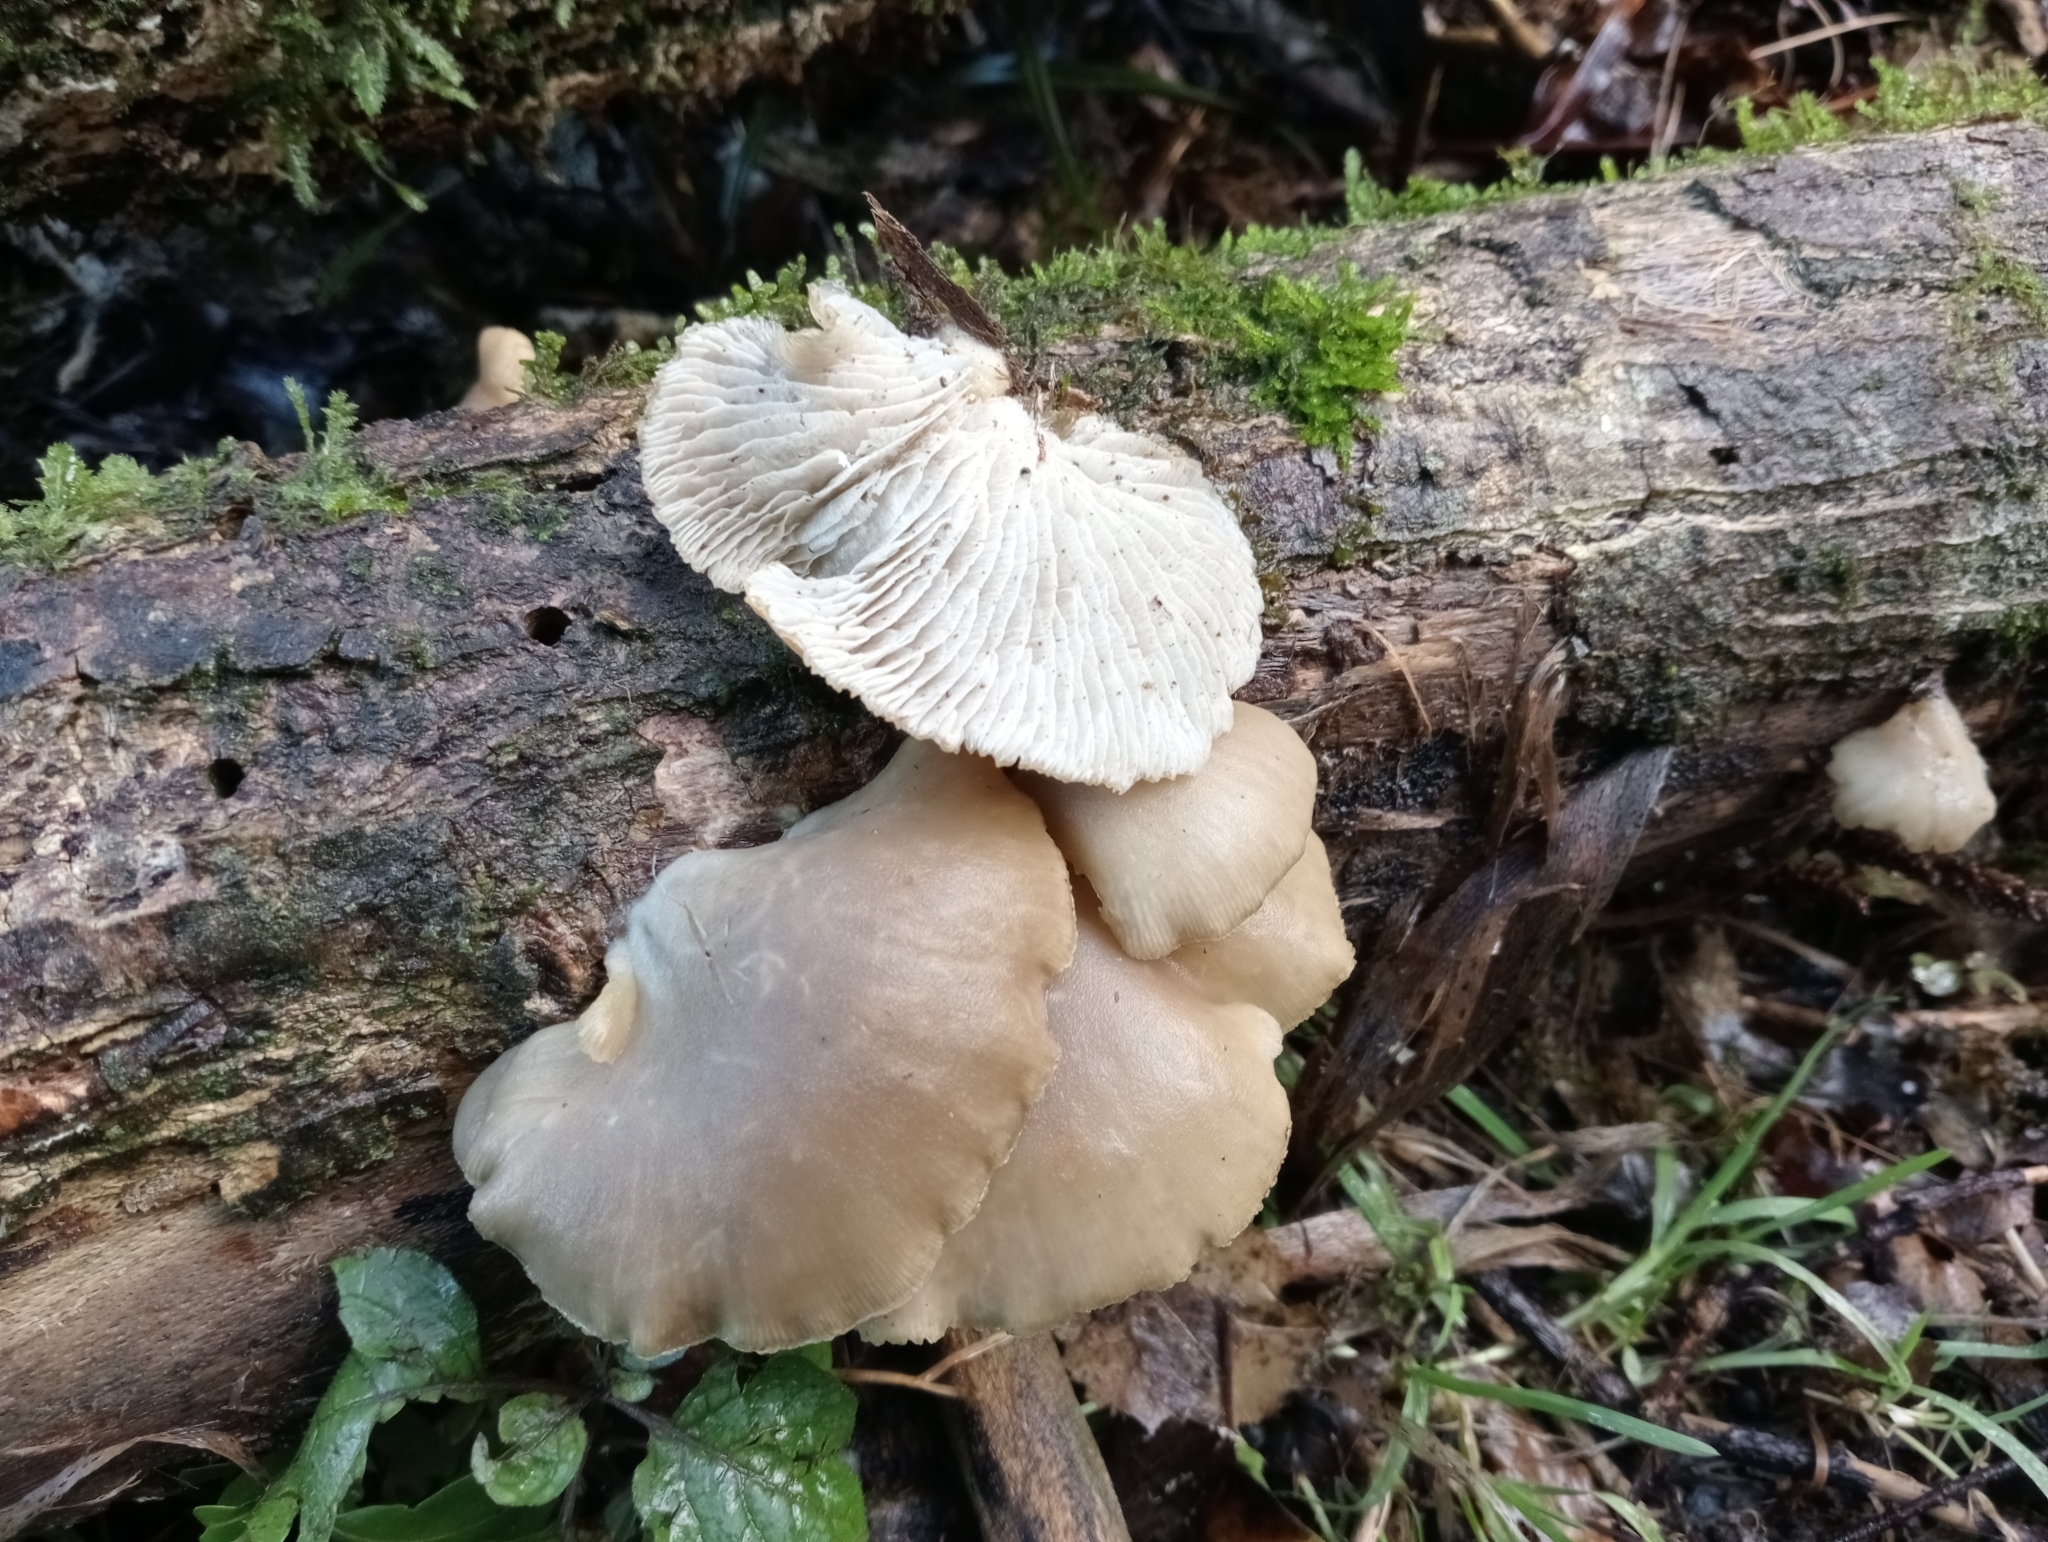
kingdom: Fungi
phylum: Basidiomycota
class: Agaricomycetes
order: Agaricales
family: Tricholomataceae
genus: Conchomyces
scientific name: Conchomyces bursiformis
